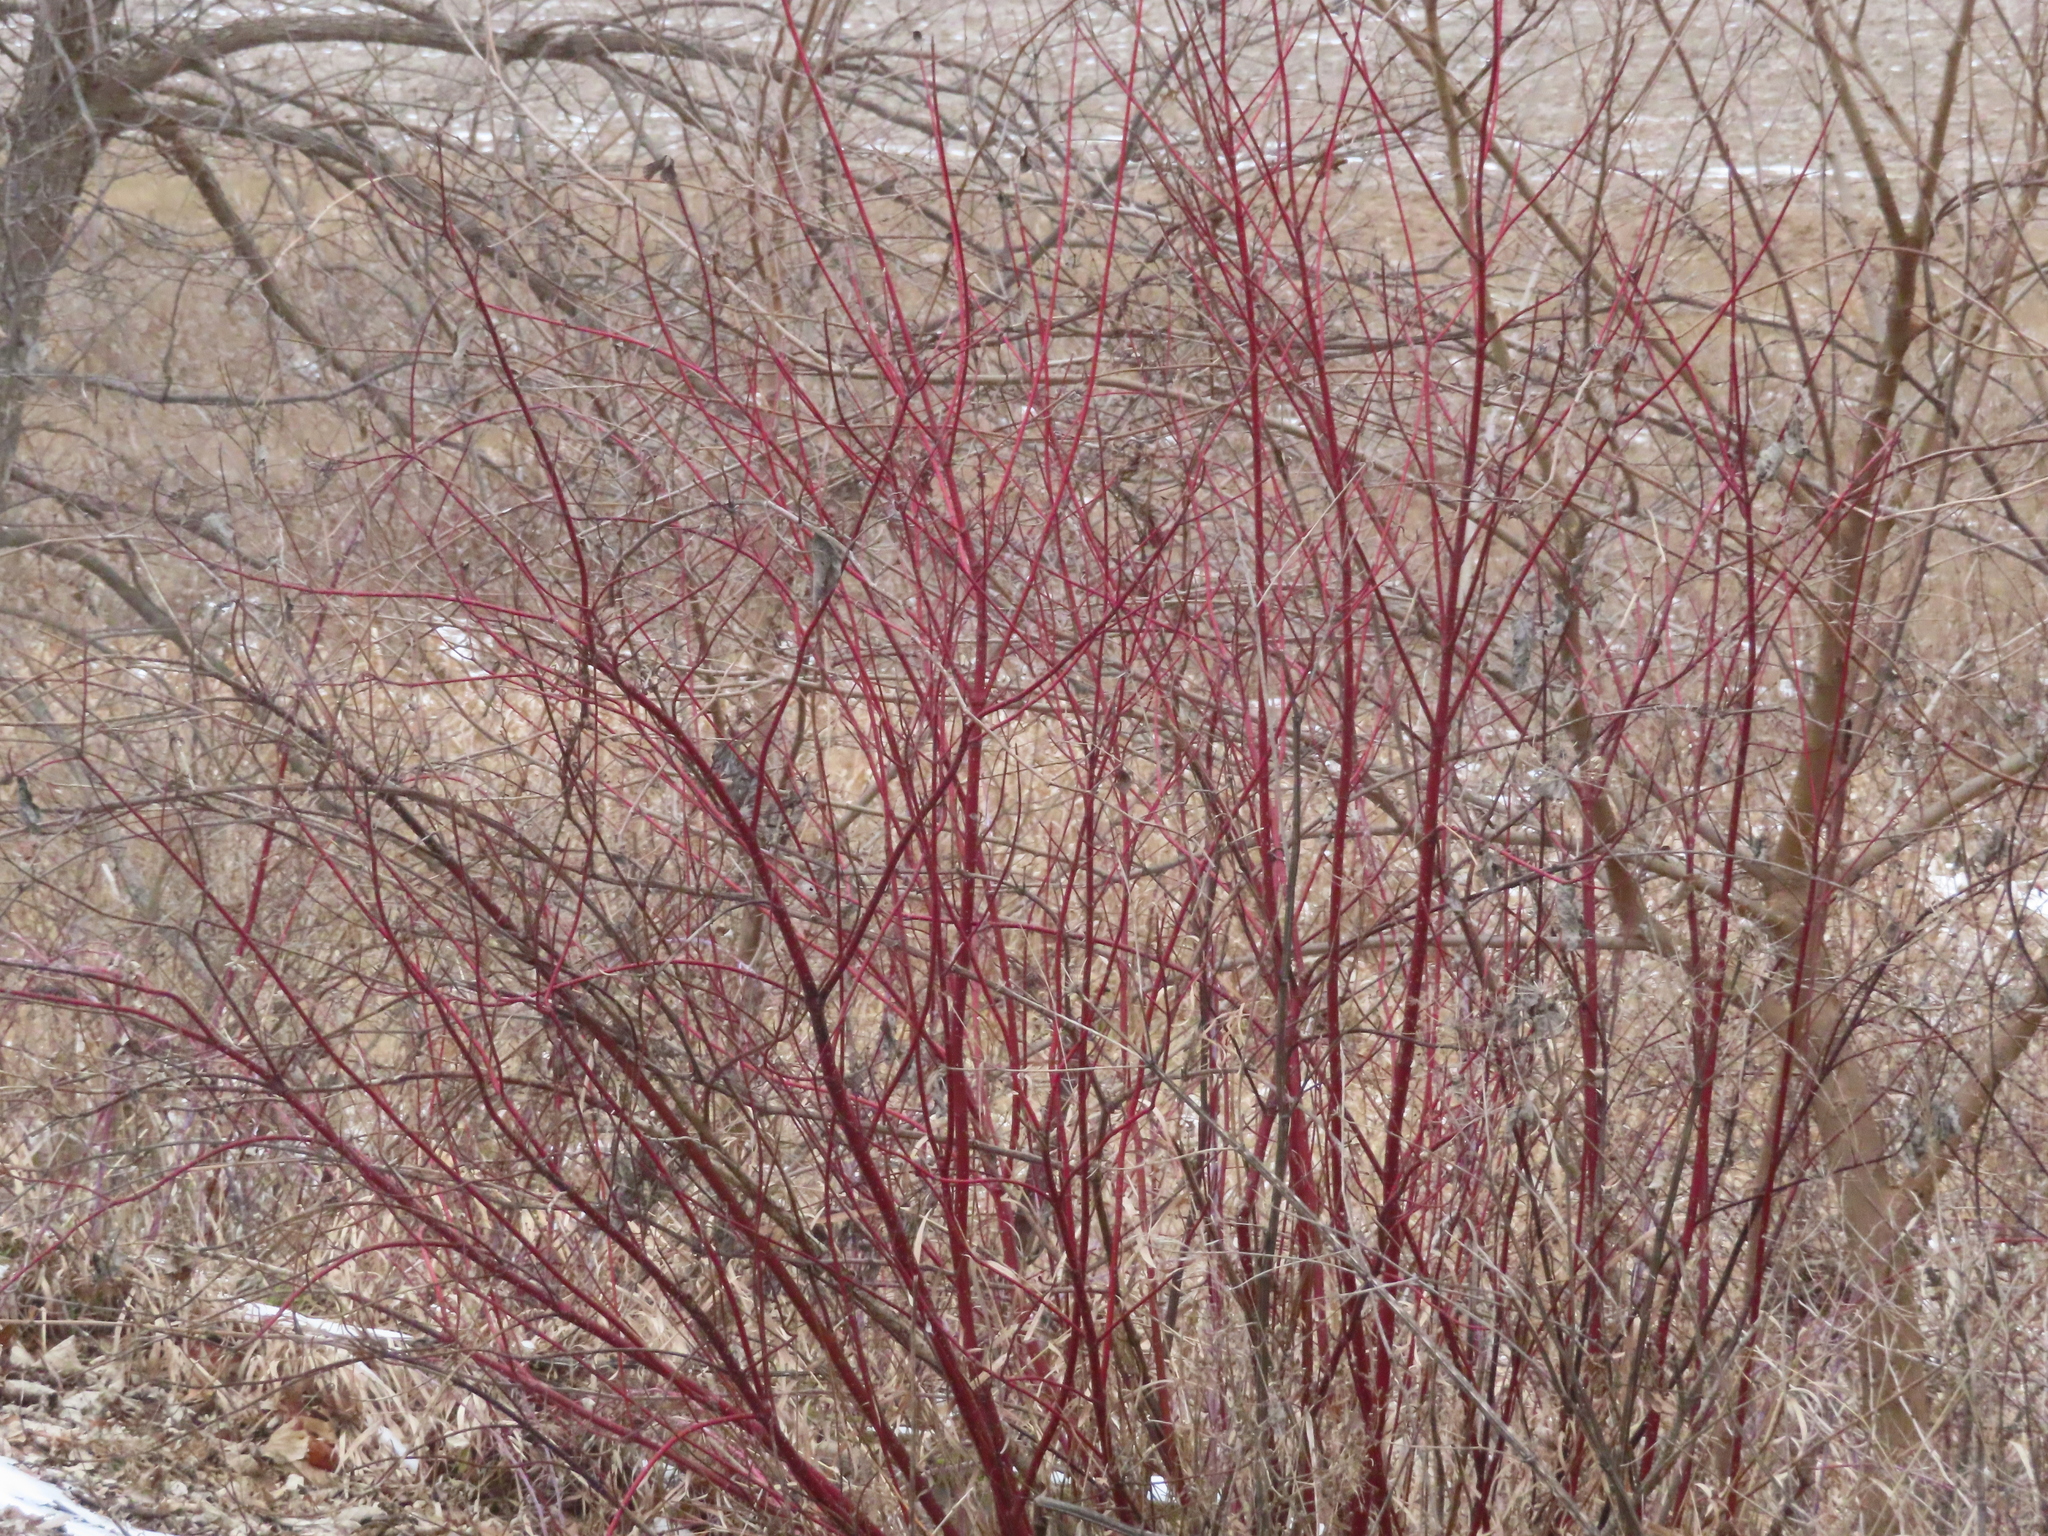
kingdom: Plantae
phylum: Tracheophyta
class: Magnoliopsida
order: Cornales
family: Cornaceae
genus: Cornus
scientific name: Cornus sericea
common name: Red-osier dogwood
